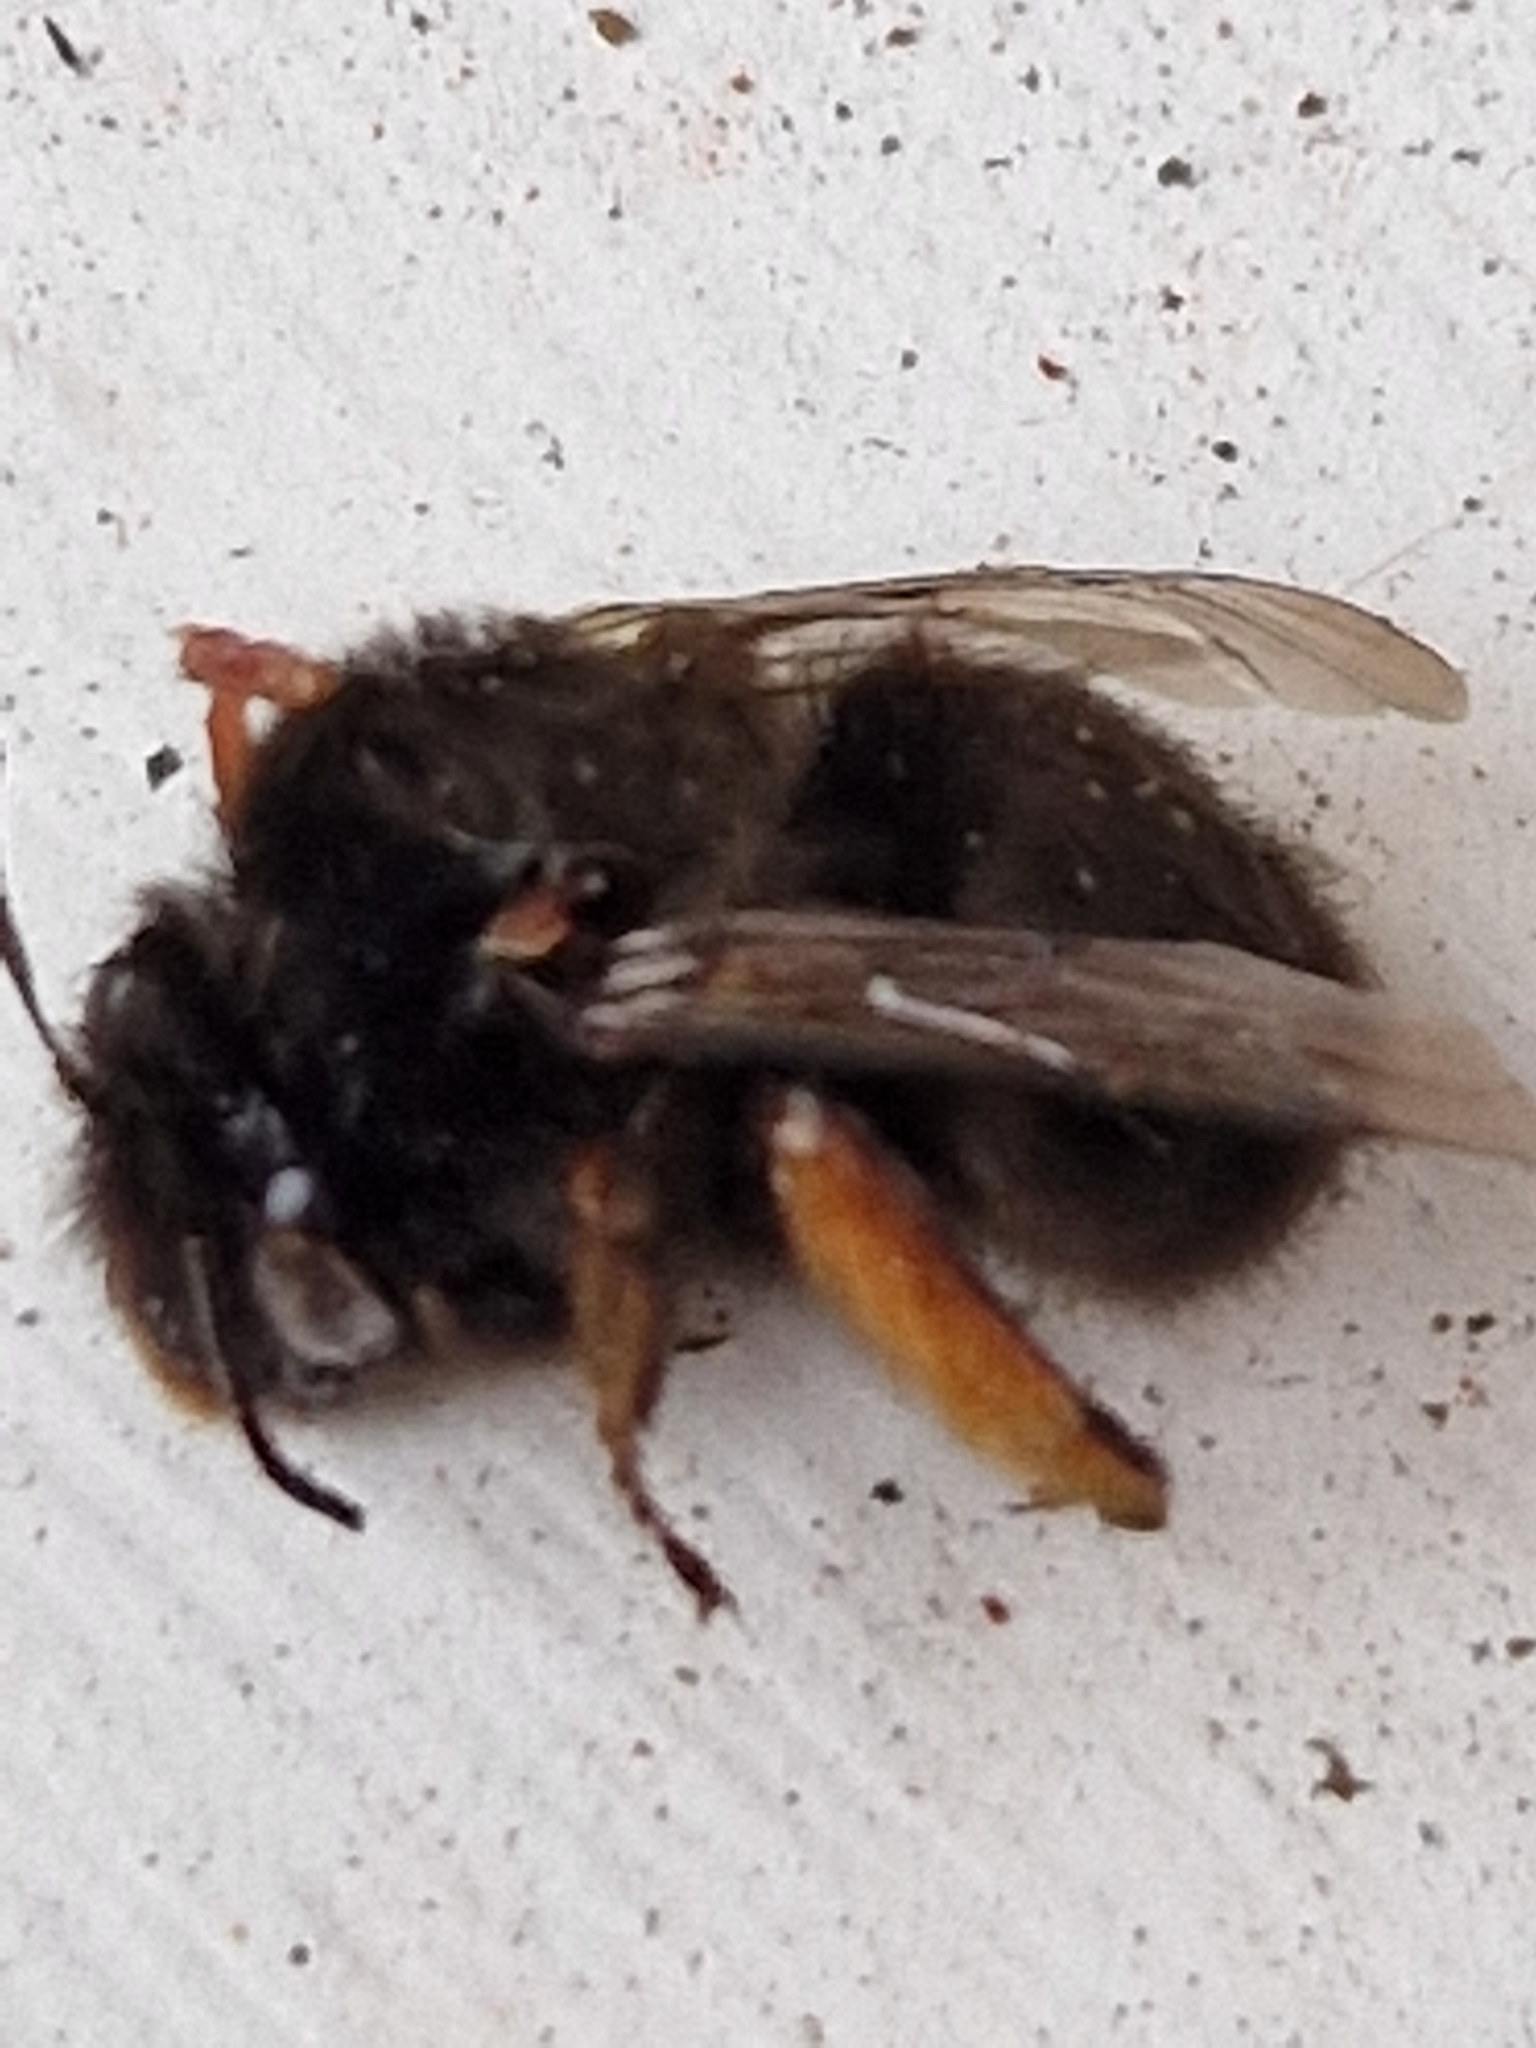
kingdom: Animalia
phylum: Arthropoda
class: Insecta
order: Hymenoptera
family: Apidae
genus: Anthophora
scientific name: Anthophora plumipes
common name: Hairy-footed flower bee
